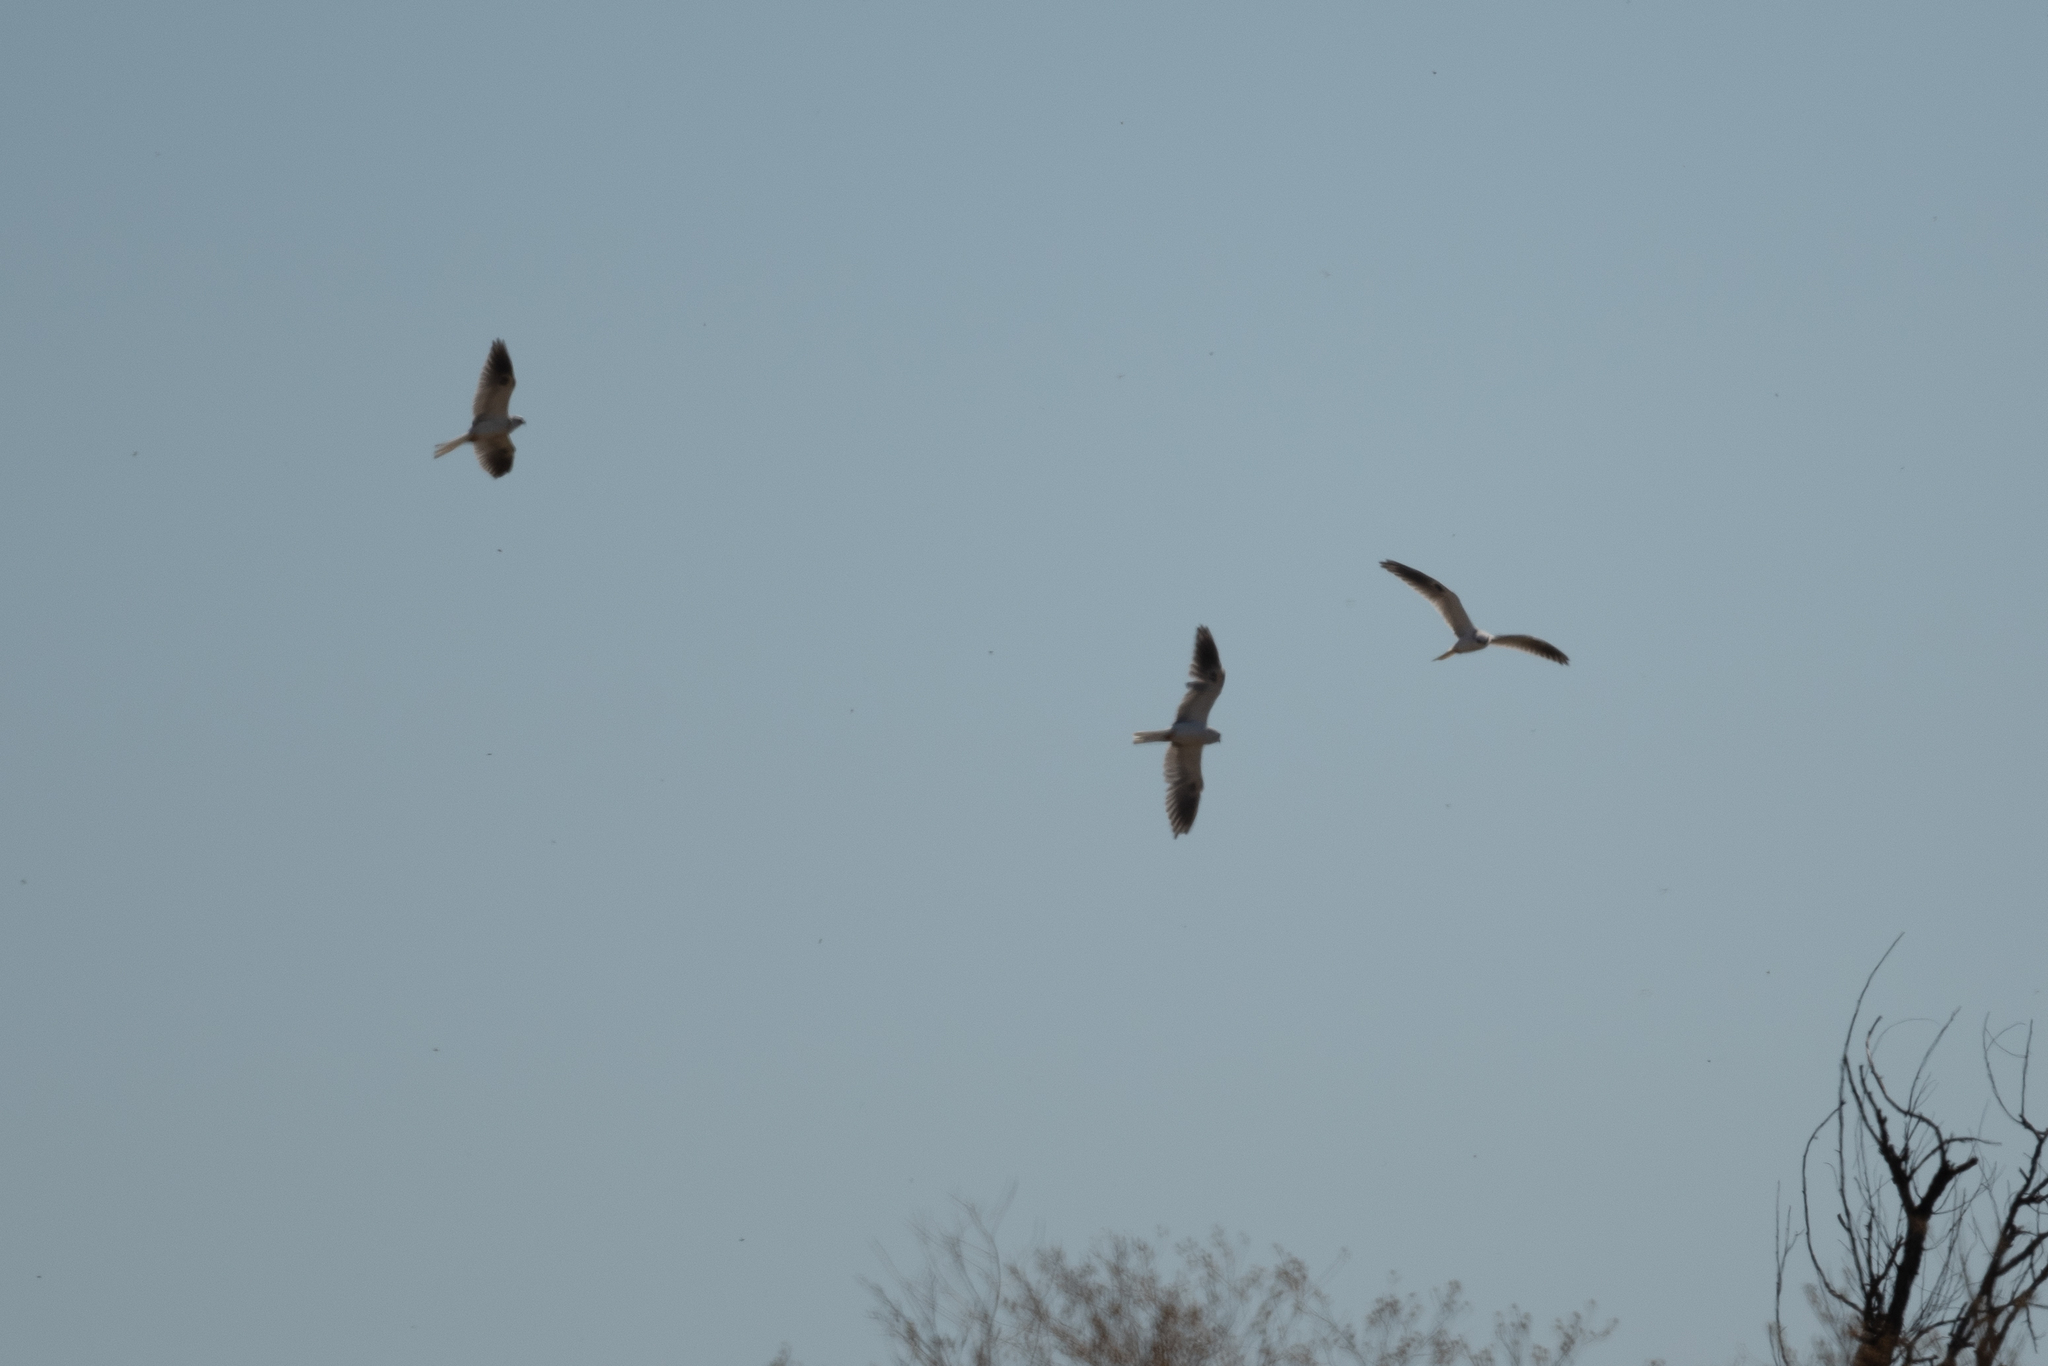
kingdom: Animalia
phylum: Chordata
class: Aves
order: Accipitriformes
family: Accipitridae
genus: Elanus
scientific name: Elanus leucurus
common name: White-tailed kite
